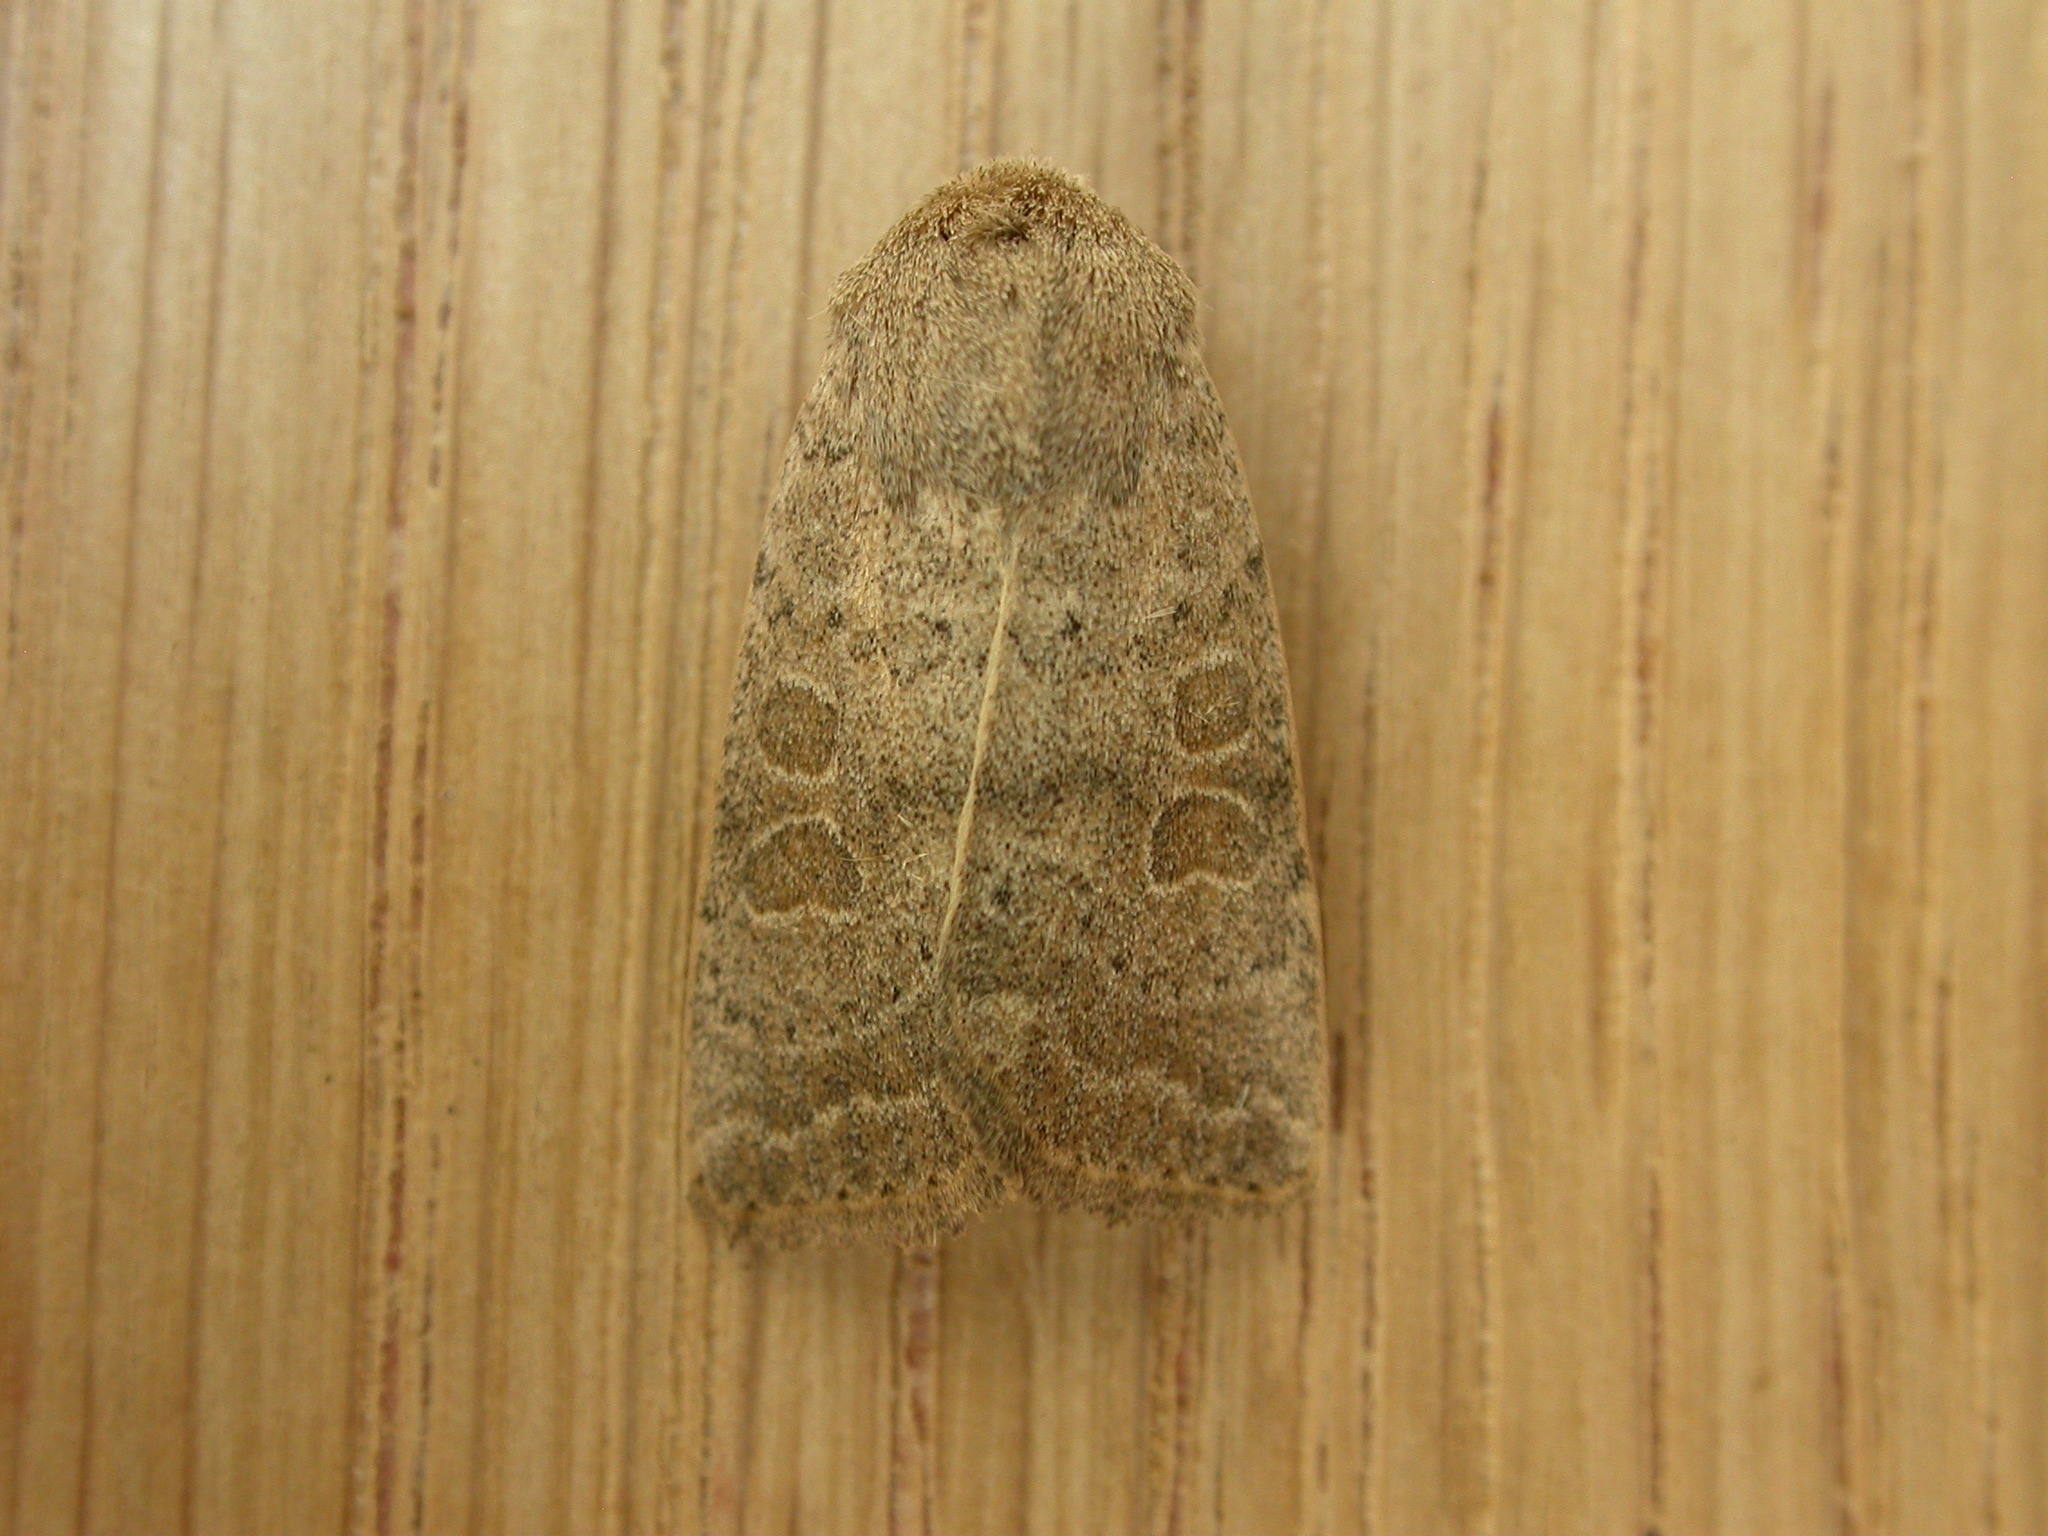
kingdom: Animalia
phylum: Arthropoda
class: Insecta
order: Lepidoptera
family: Noctuidae
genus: Hoplodrina
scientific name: Hoplodrina ambigua
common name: Vine's rustic
